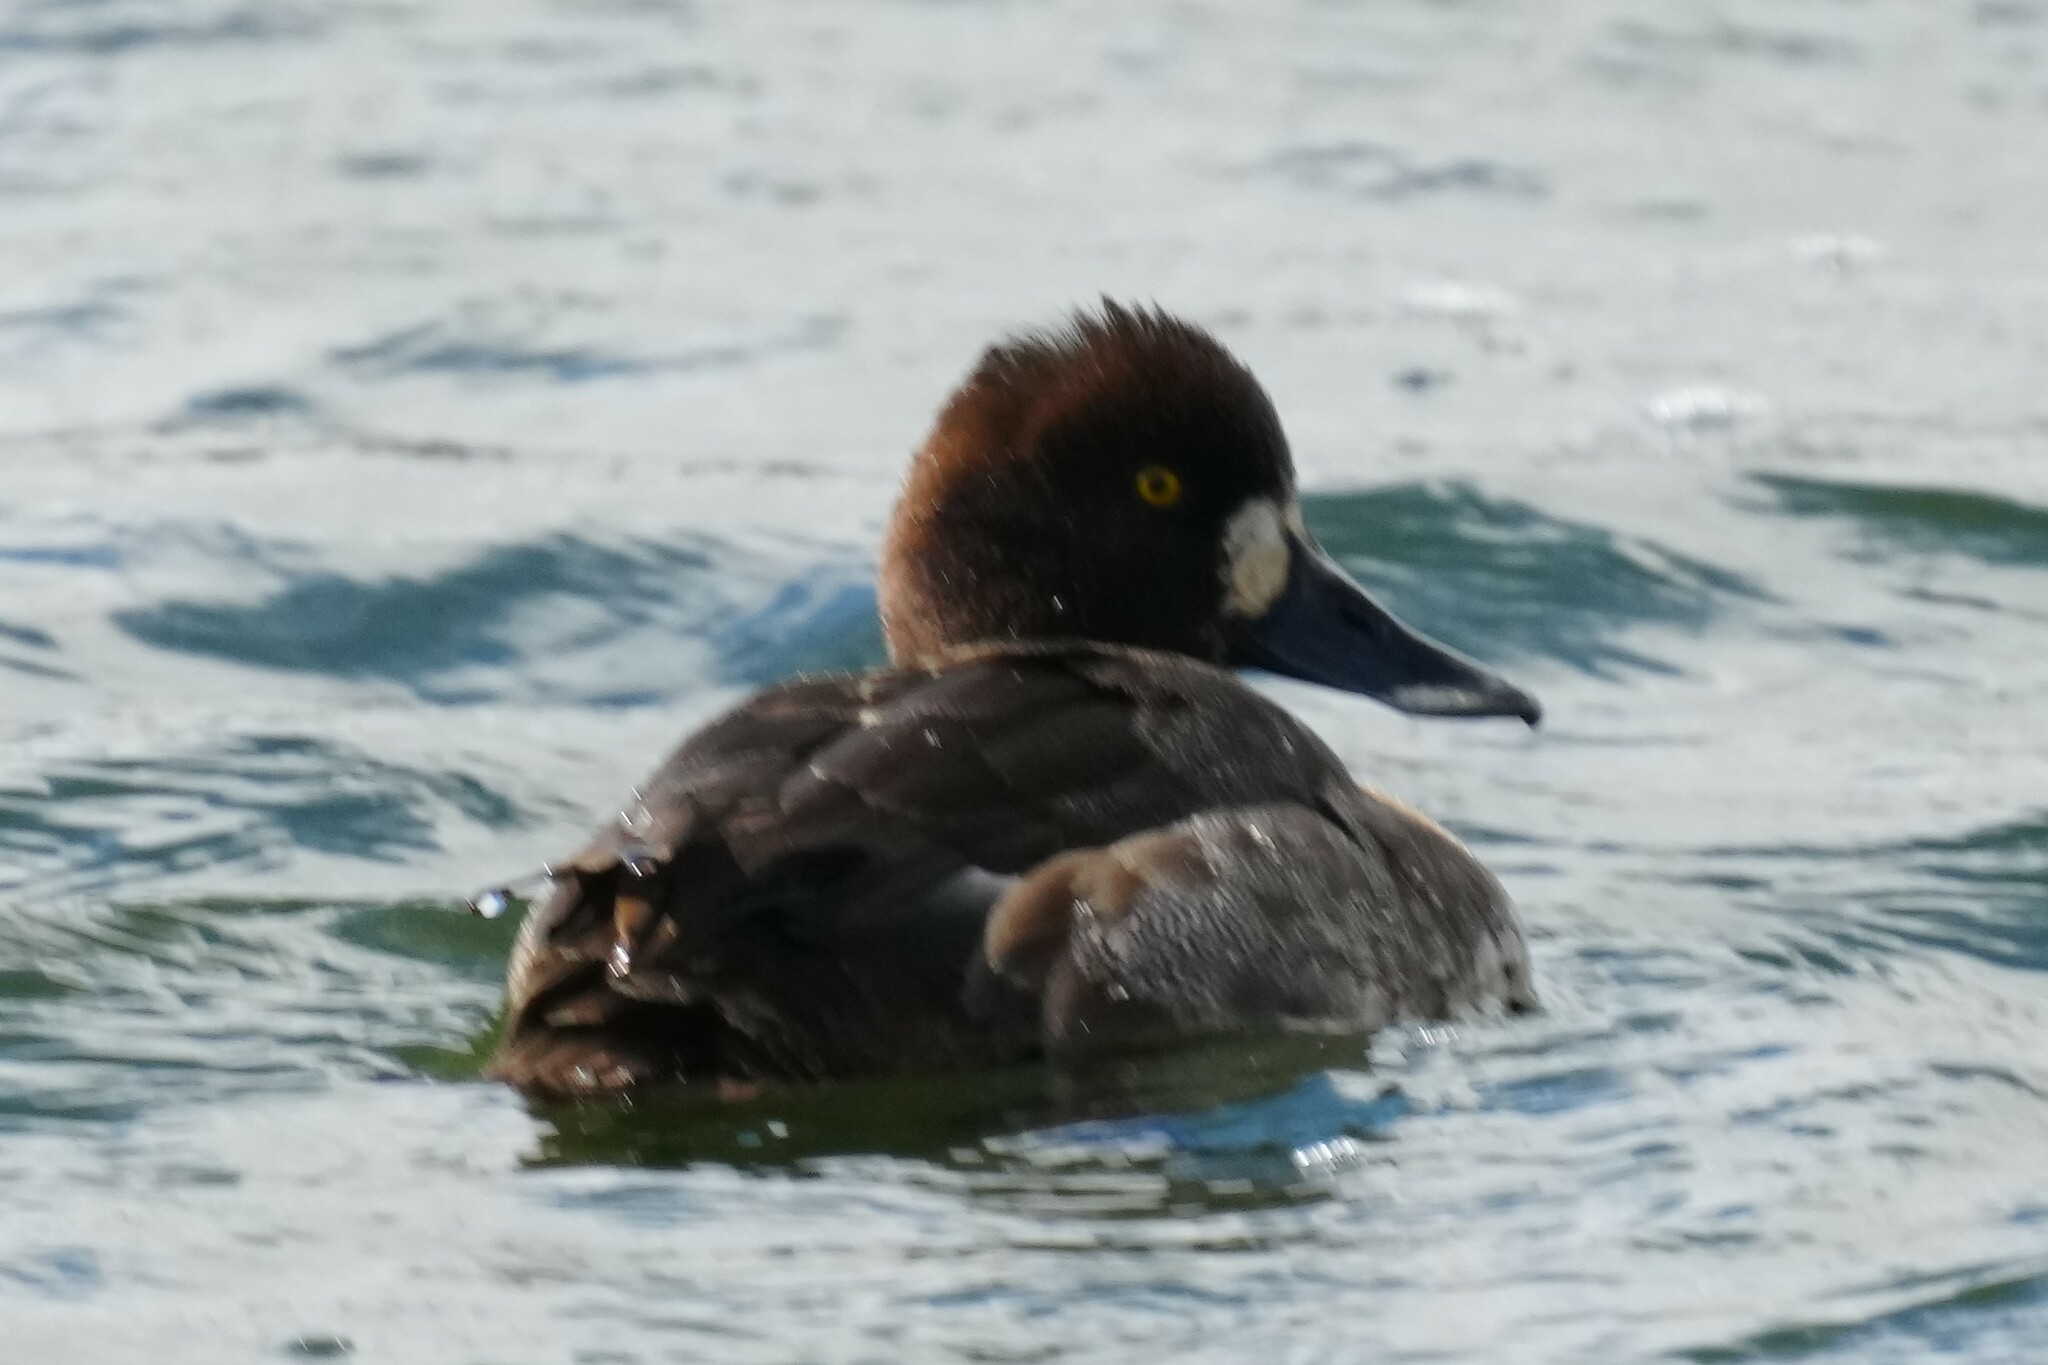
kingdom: Animalia
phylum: Chordata
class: Aves
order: Anseriformes
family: Anatidae
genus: Aythya
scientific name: Aythya marila
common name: Greater scaup
